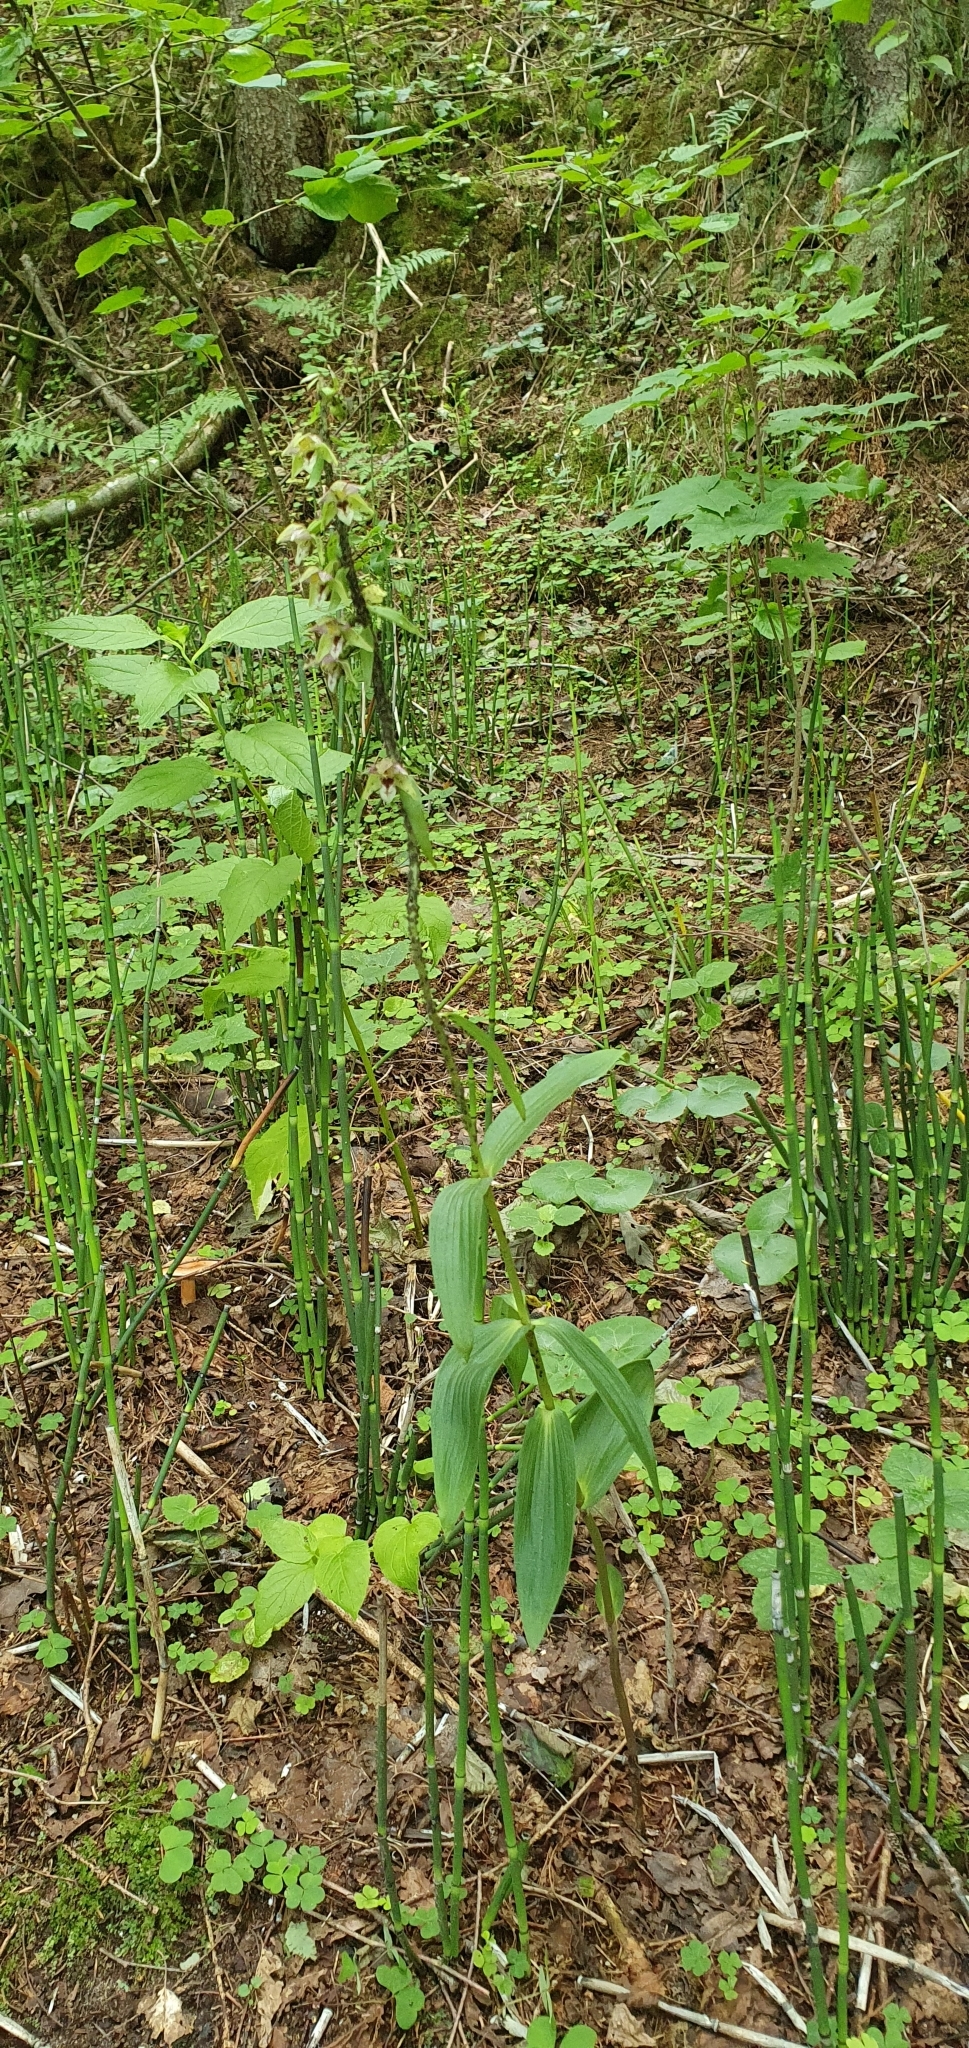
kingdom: Plantae
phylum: Tracheophyta
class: Liliopsida
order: Asparagales
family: Orchidaceae
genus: Epipactis
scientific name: Epipactis helleborine
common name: Broad-leaved helleborine
